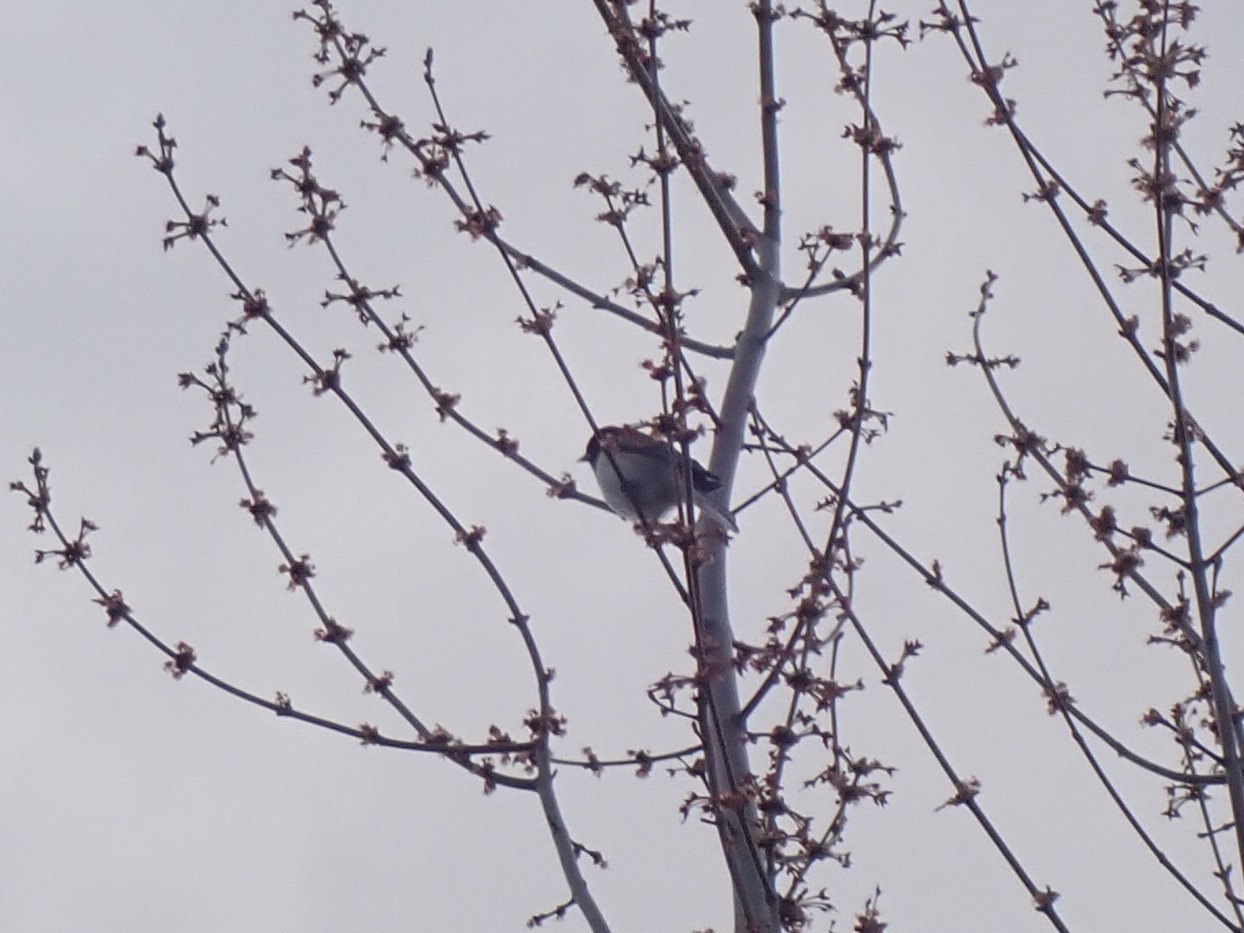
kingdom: Animalia
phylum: Chordata
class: Aves
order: Passeriformes
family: Passerellidae
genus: Junco
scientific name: Junco hyemalis
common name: Dark-eyed junco
